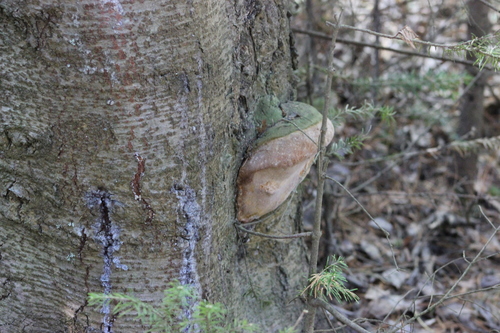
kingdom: Fungi
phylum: Basidiomycota
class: Agaricomycetes
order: Hymenochaetales
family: Hymenochaetaceae
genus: Phellinus
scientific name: Phellinus hartigii
